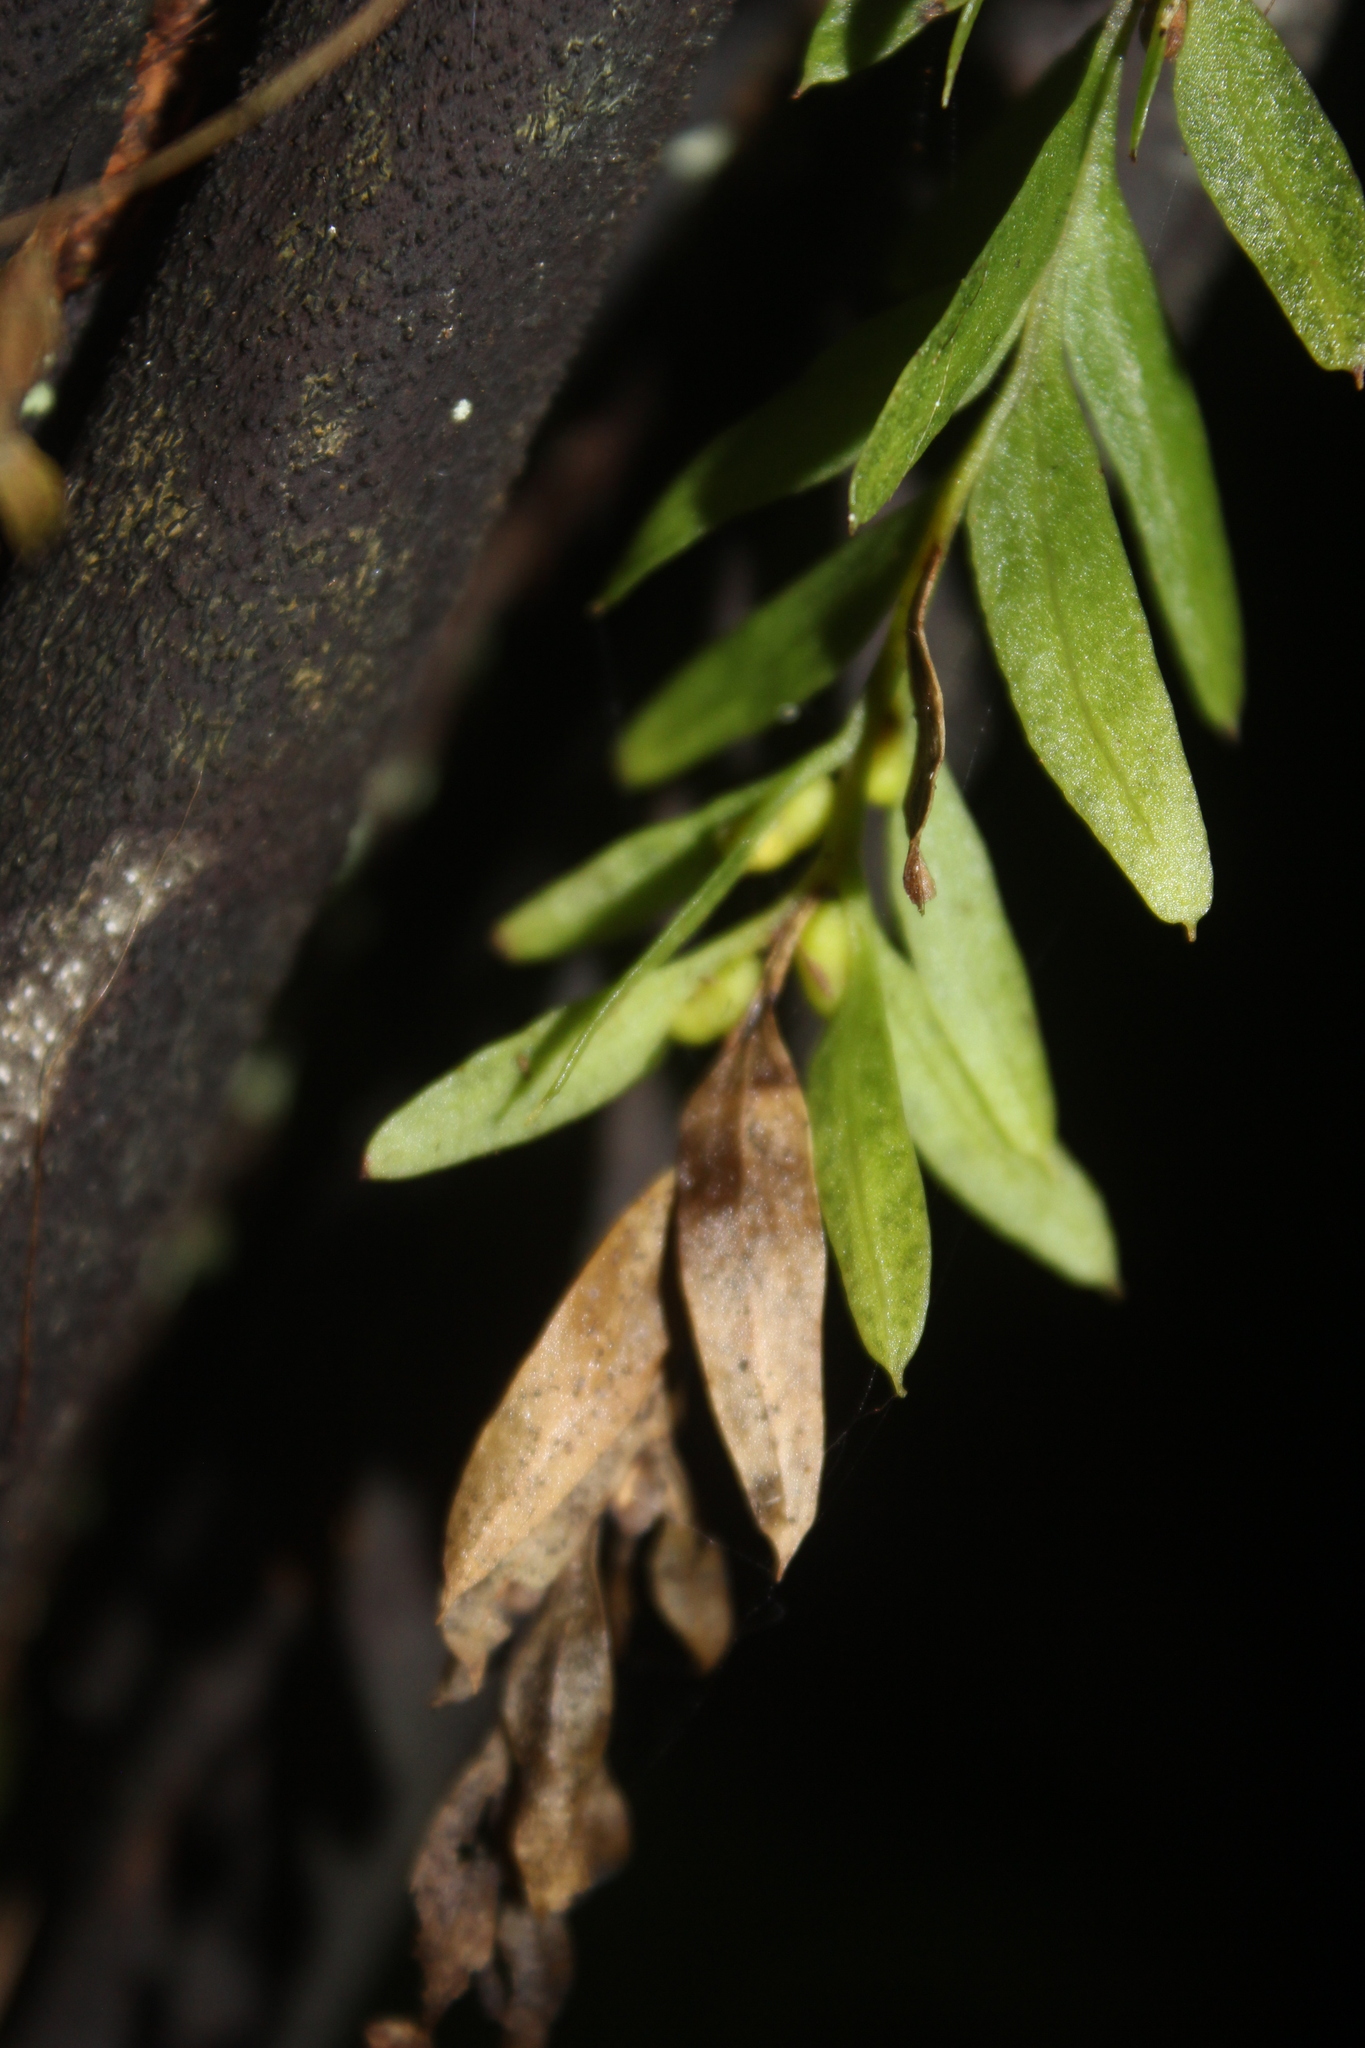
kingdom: Plantae
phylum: Tracheophyta
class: Polypodiopsida
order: Psilotales
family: Psilotaceae
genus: Tmesipteris
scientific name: Tmesipteris elongata
